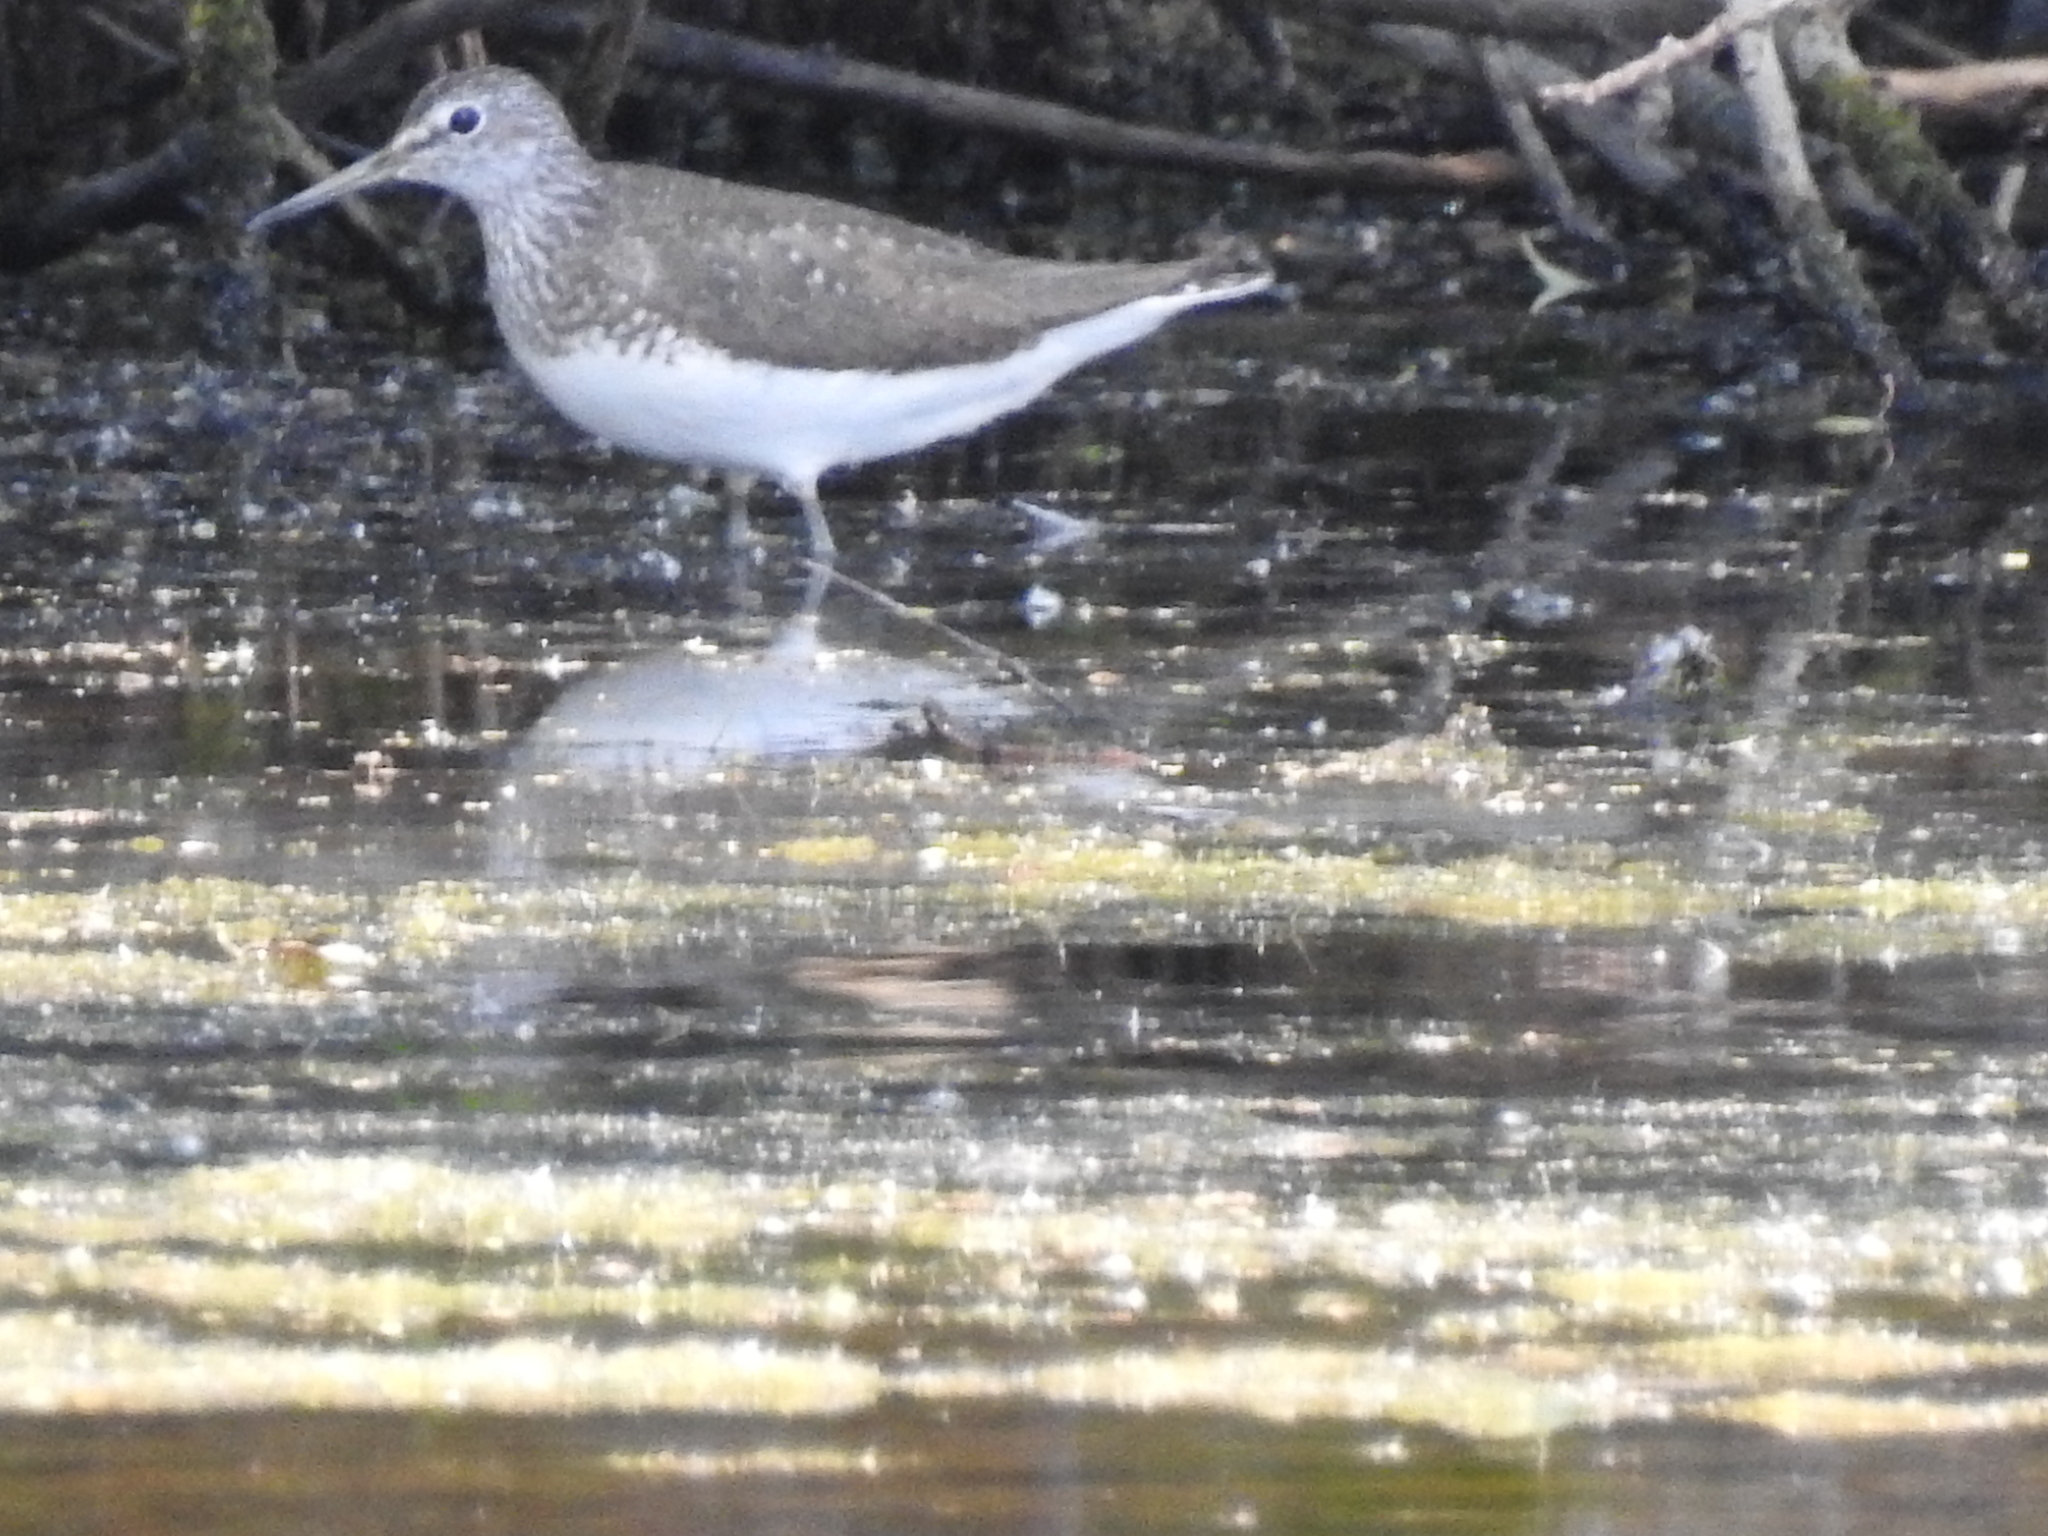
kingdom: Animalia
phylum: Chordata
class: Aves
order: Charadriiformes
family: Scolopacidae
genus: Tringa
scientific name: Tringa ochropus
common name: Green sandpiper
